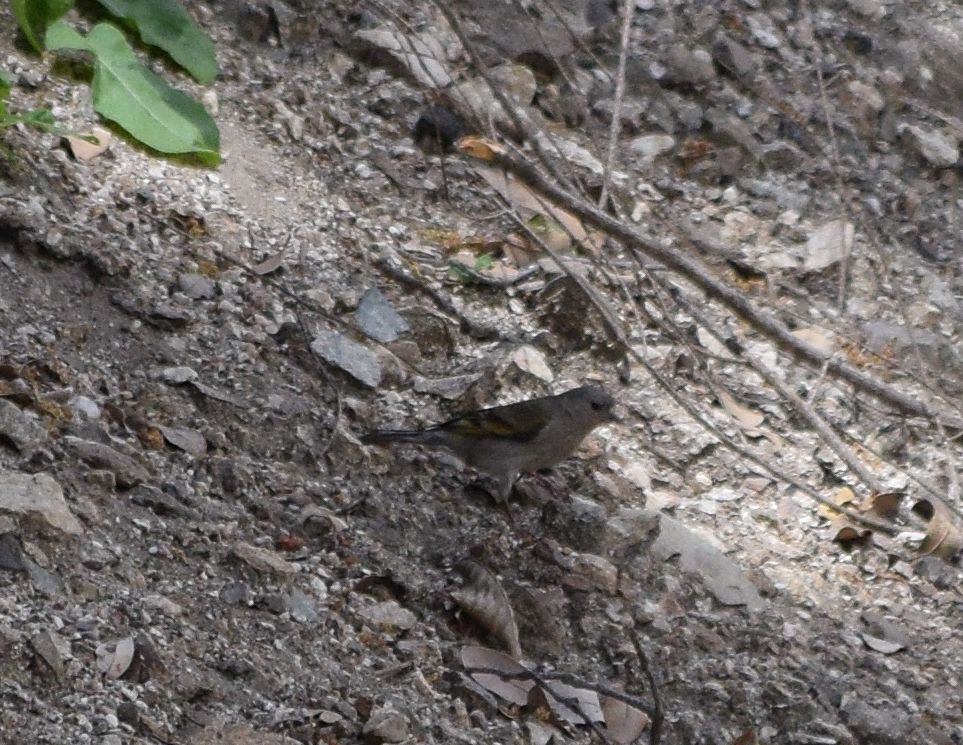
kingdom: Animalia
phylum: Chordata
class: Aves
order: Passeriformes
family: Fringillidae
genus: Spinus
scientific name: Spinus lawrencei
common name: Lawrence's goldfinch
